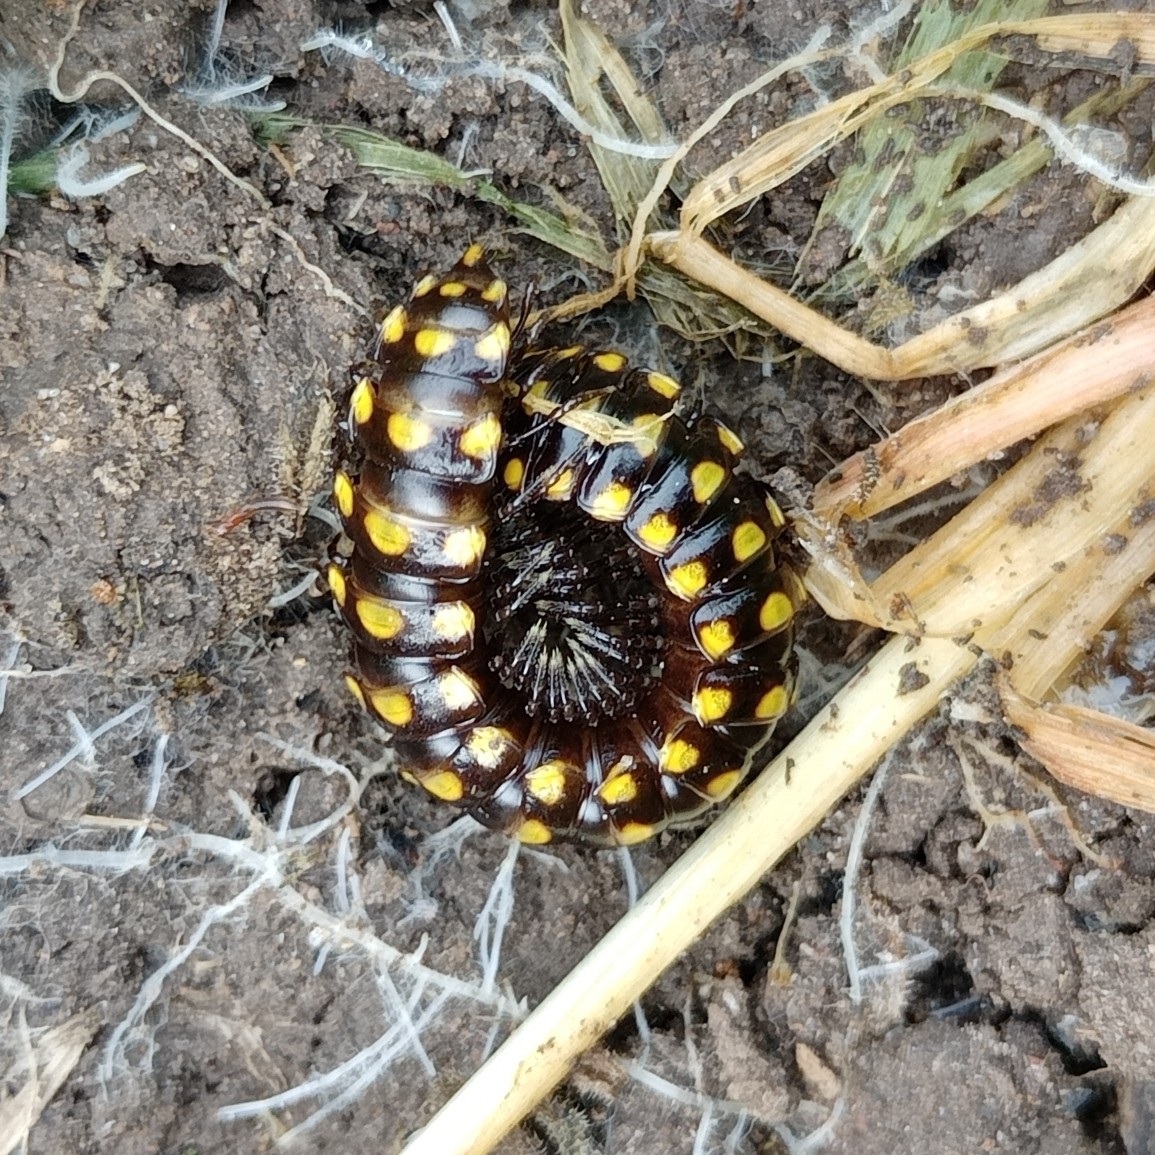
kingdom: Animalia
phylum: Arthropoda
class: Diplopoda
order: Polydesmida
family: Xystodesmidae
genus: Melaphe
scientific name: Melaphe vestita
